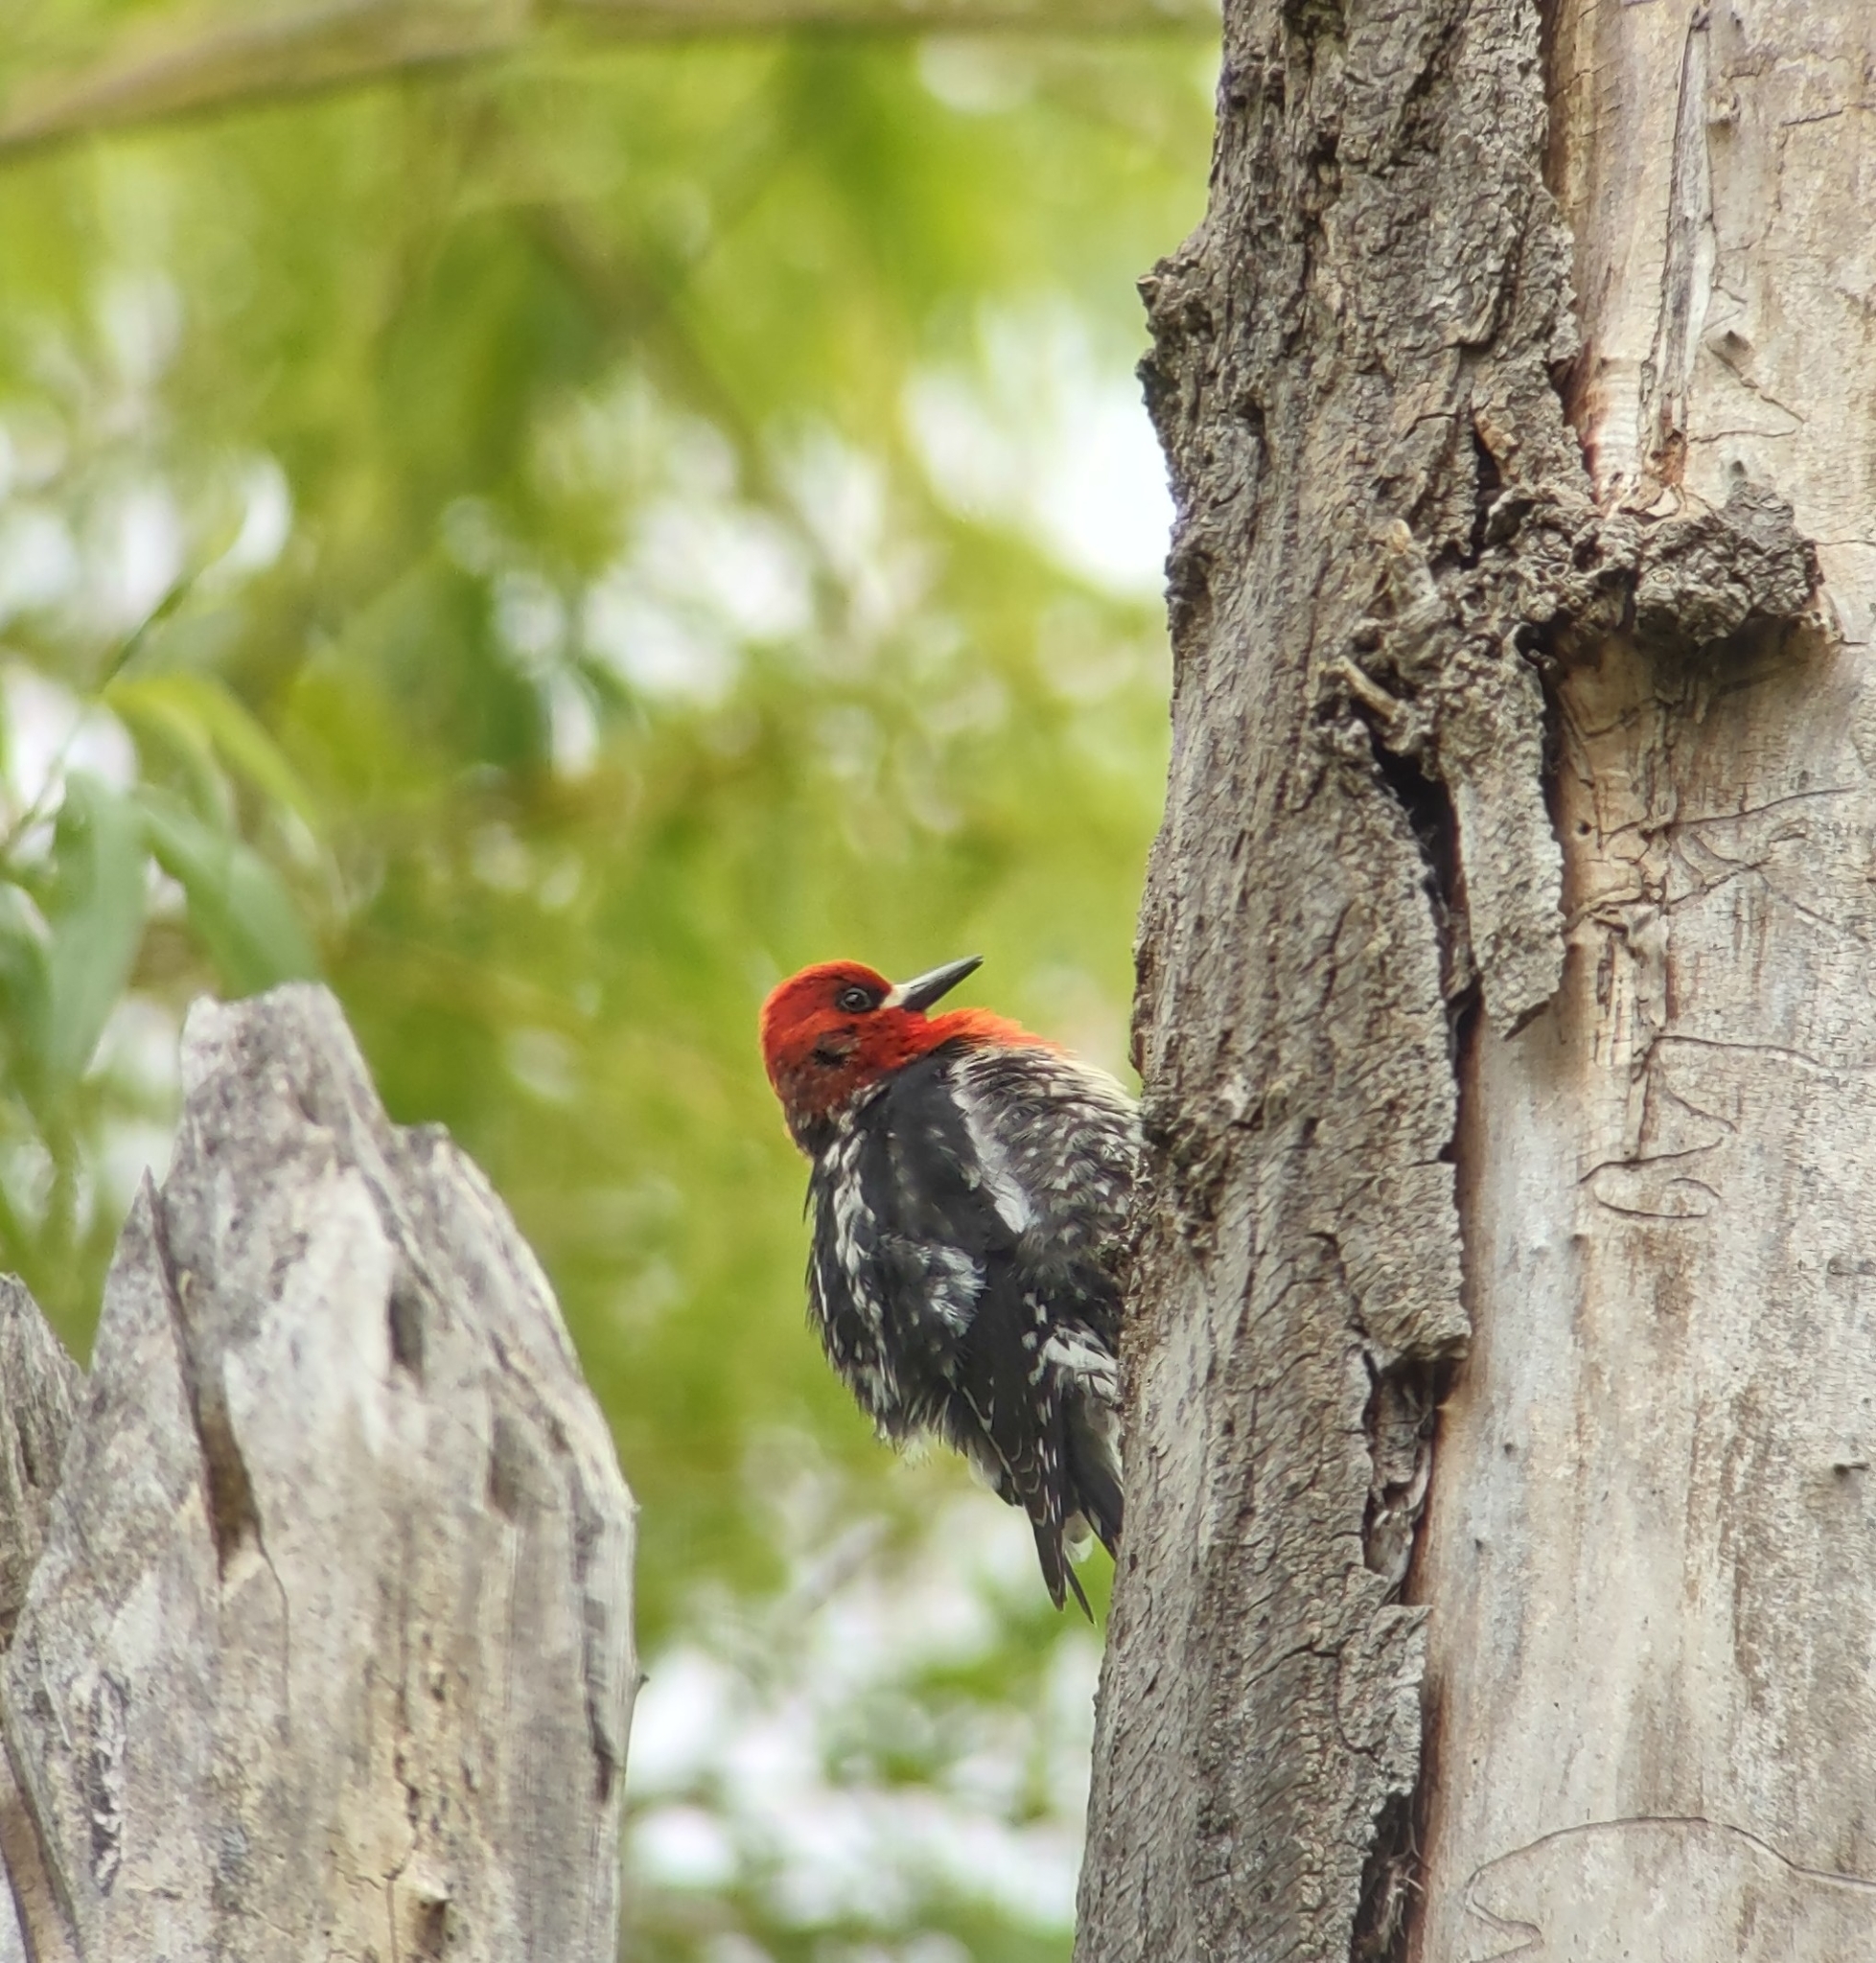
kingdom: Animalia
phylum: Chordata
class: Aves
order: Piciformes
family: Picidae
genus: Sphyrapicus
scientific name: Sphyrapicus ruber
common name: Red-breasted sapsucker
